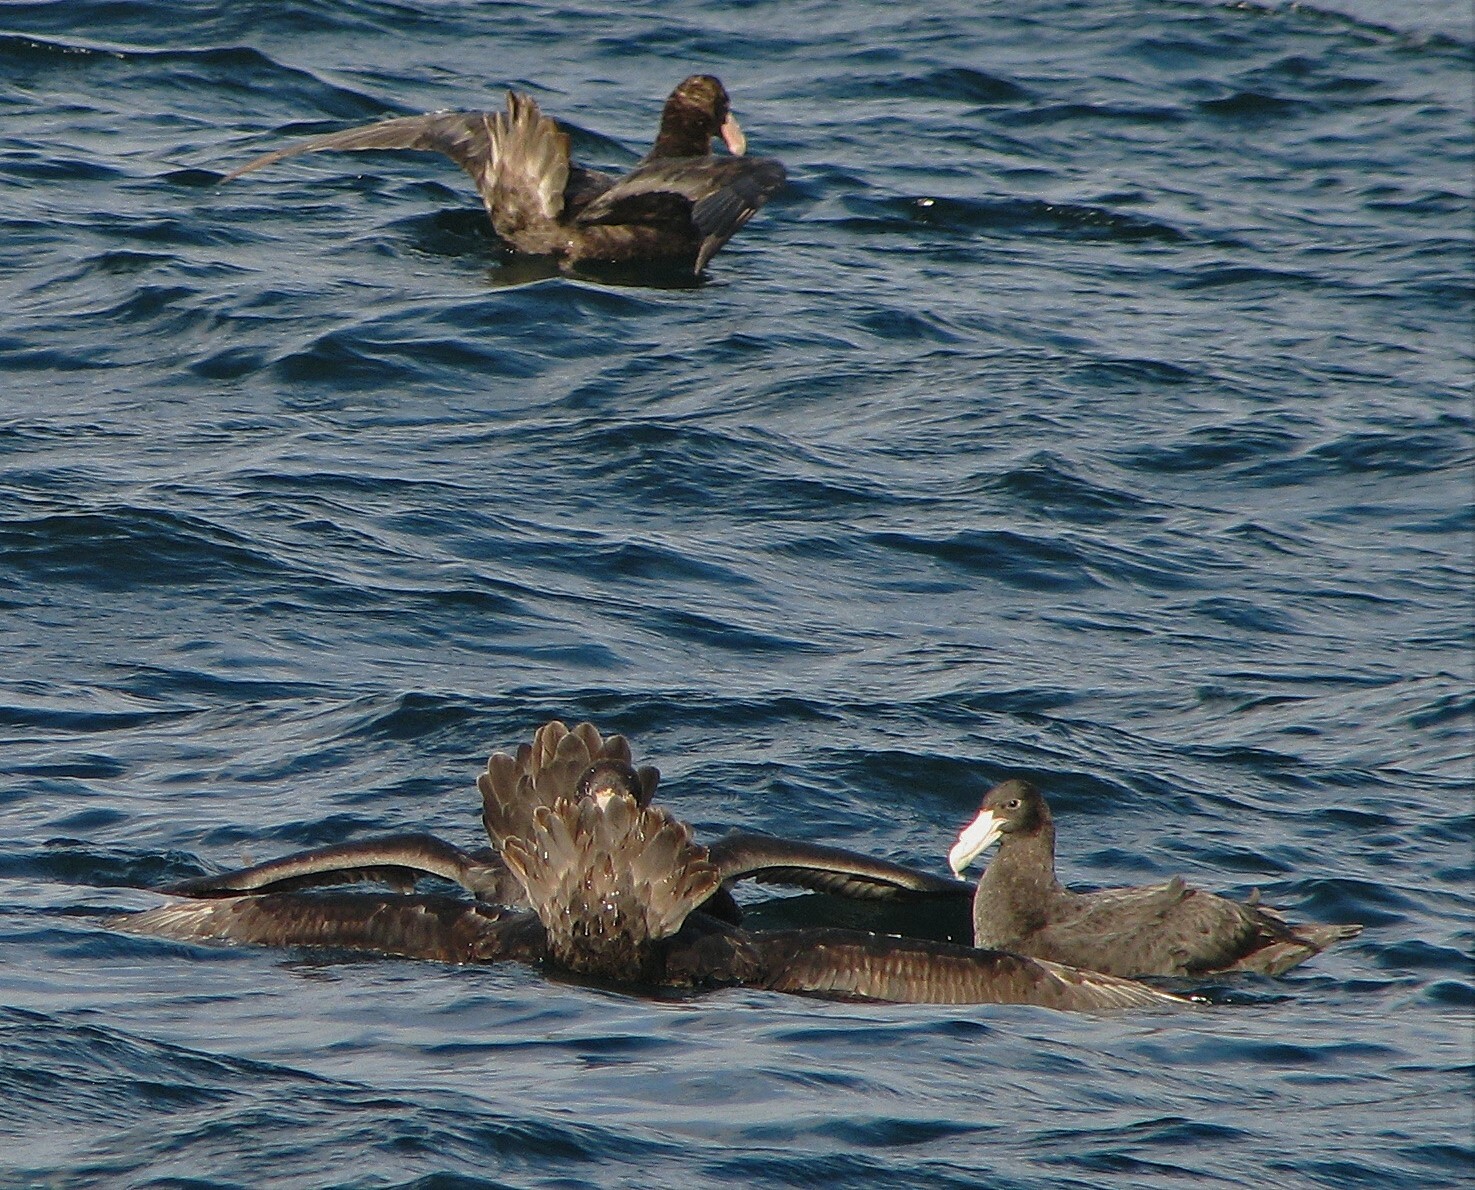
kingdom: Animalia
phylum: Chordata
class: Aves
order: Procellariiformes
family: Procellariidae
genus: Macronectes
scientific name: Macronectes giganteus
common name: Southern giant petrel
